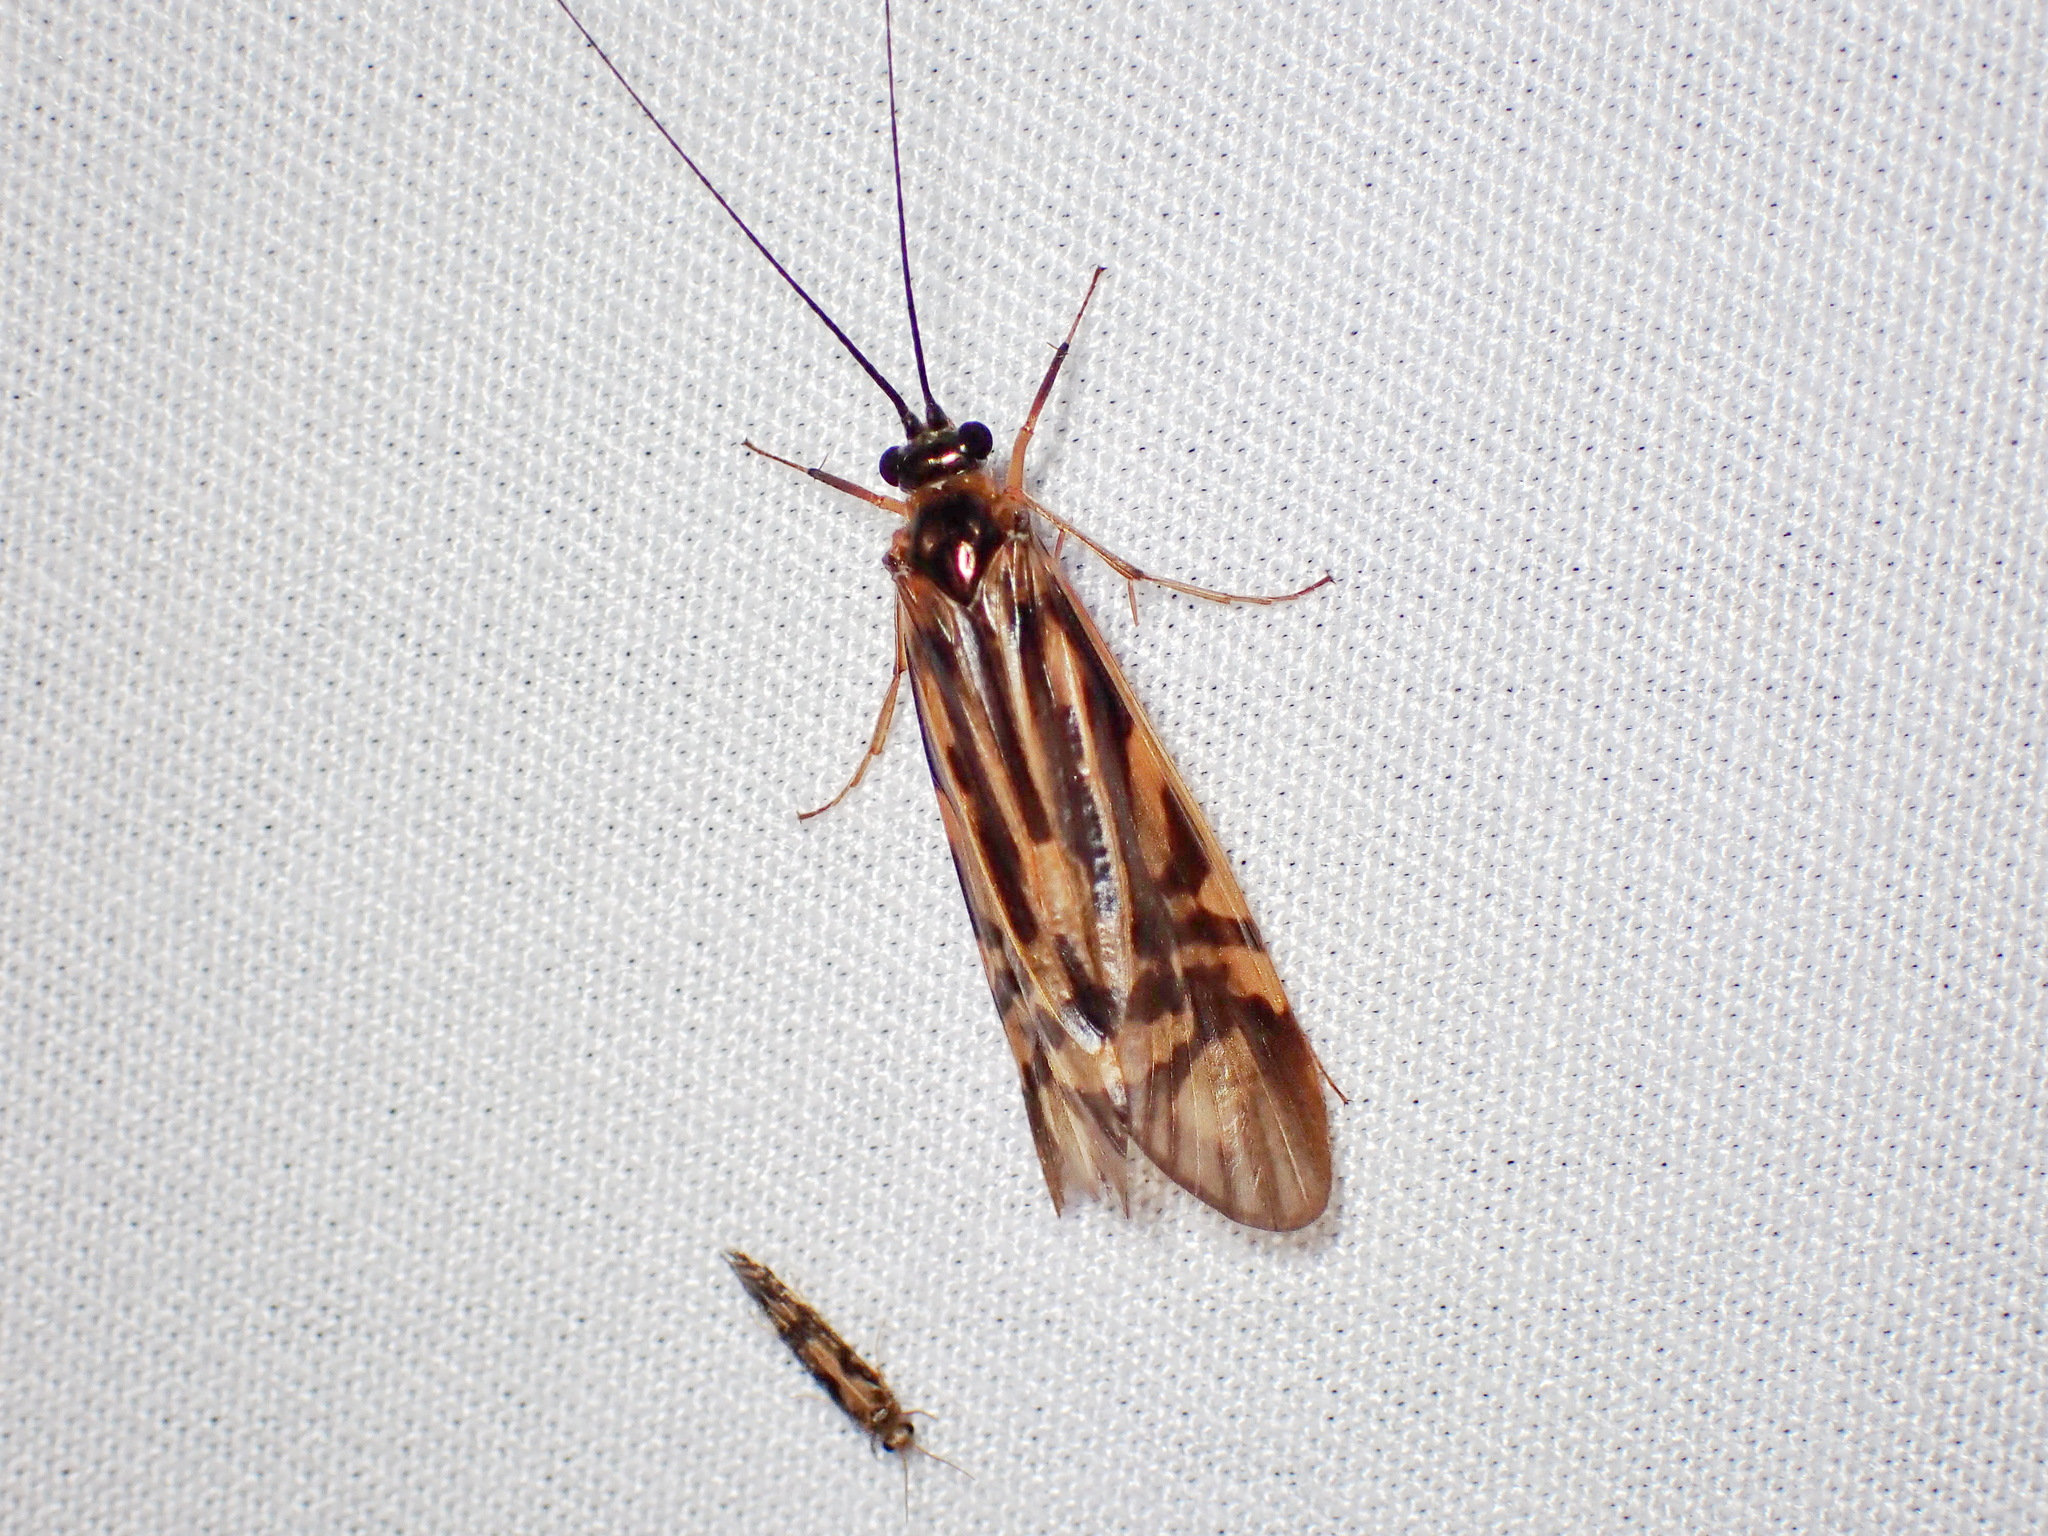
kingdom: Animalia
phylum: Arthropoda
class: Insecta
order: Trichoptera
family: Hydropsychidae
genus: Macrostemum
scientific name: Macrostemum zebratum
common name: Zebra caddisfly
